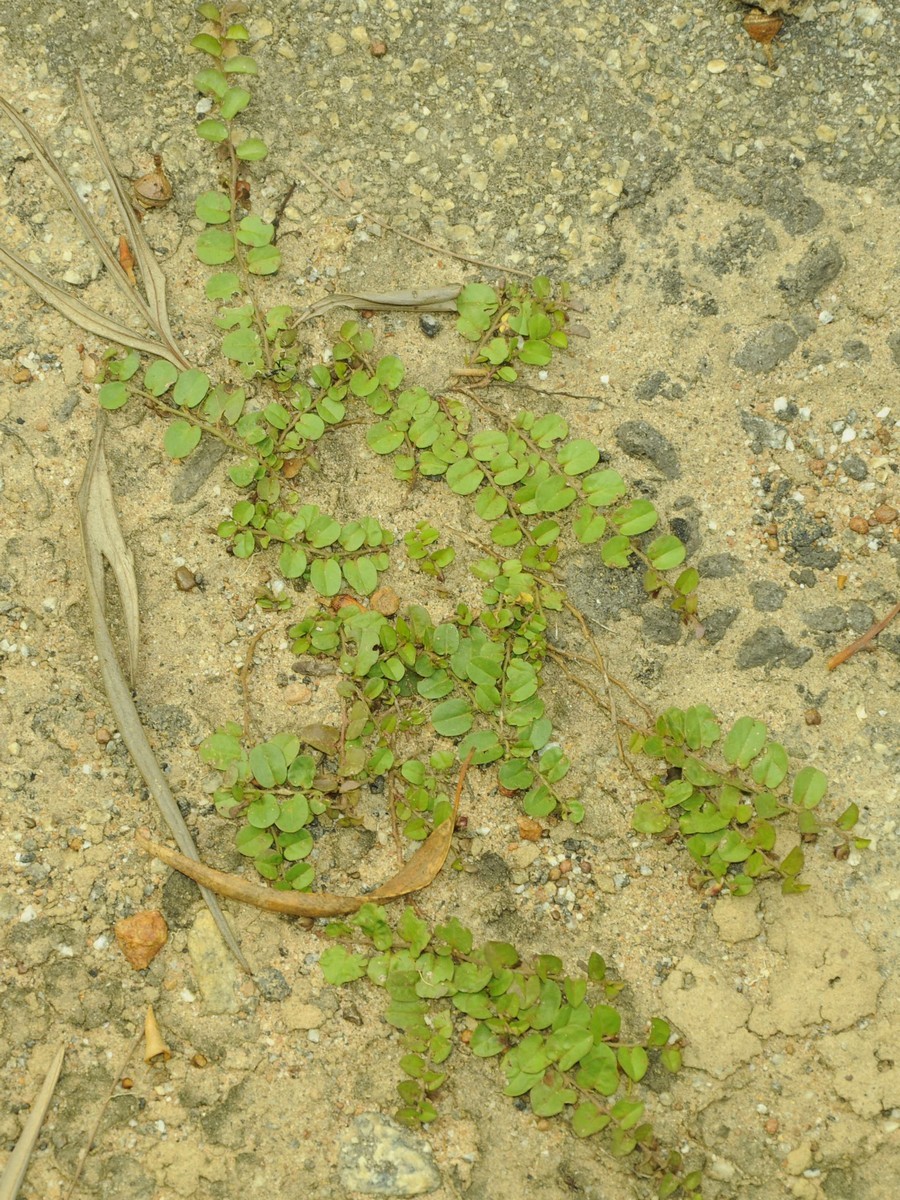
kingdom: Plantae
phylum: Tracheophyta
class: Magnoliopsida
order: Solanales
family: Convolvulaceae
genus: Evolvulus
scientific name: Evolvulus nummularius
